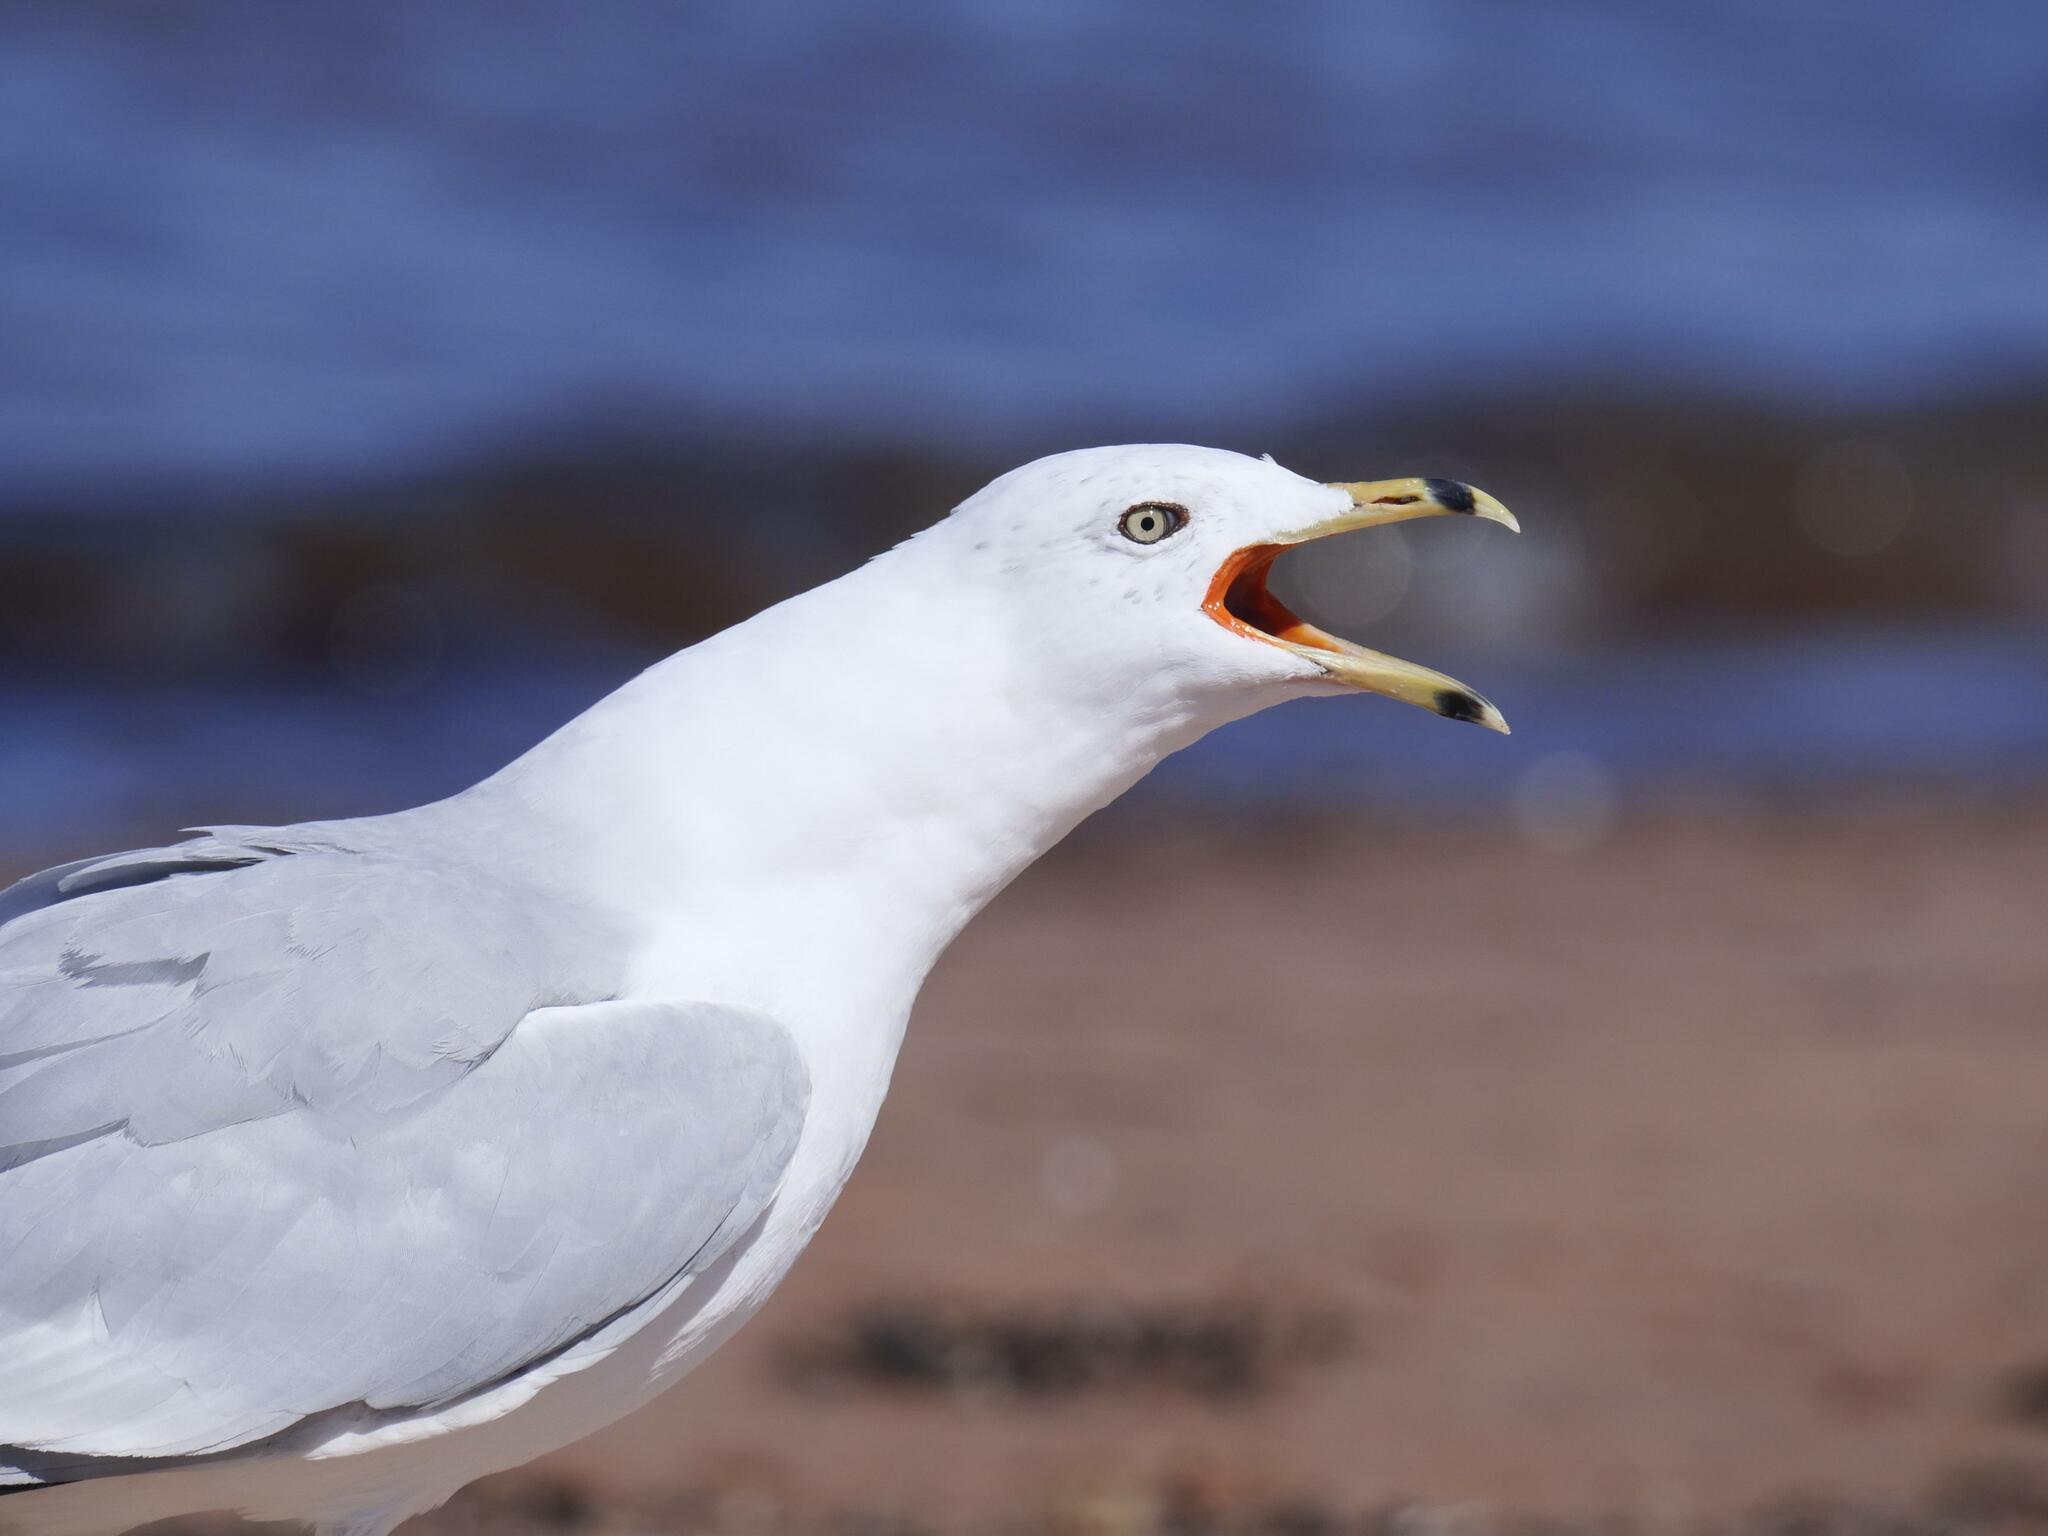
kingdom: Animalia
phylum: Chordata
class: Aves
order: Charadriiformes
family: Laridae
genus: Larus
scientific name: Larus delawarensis
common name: Ring-billed gull
